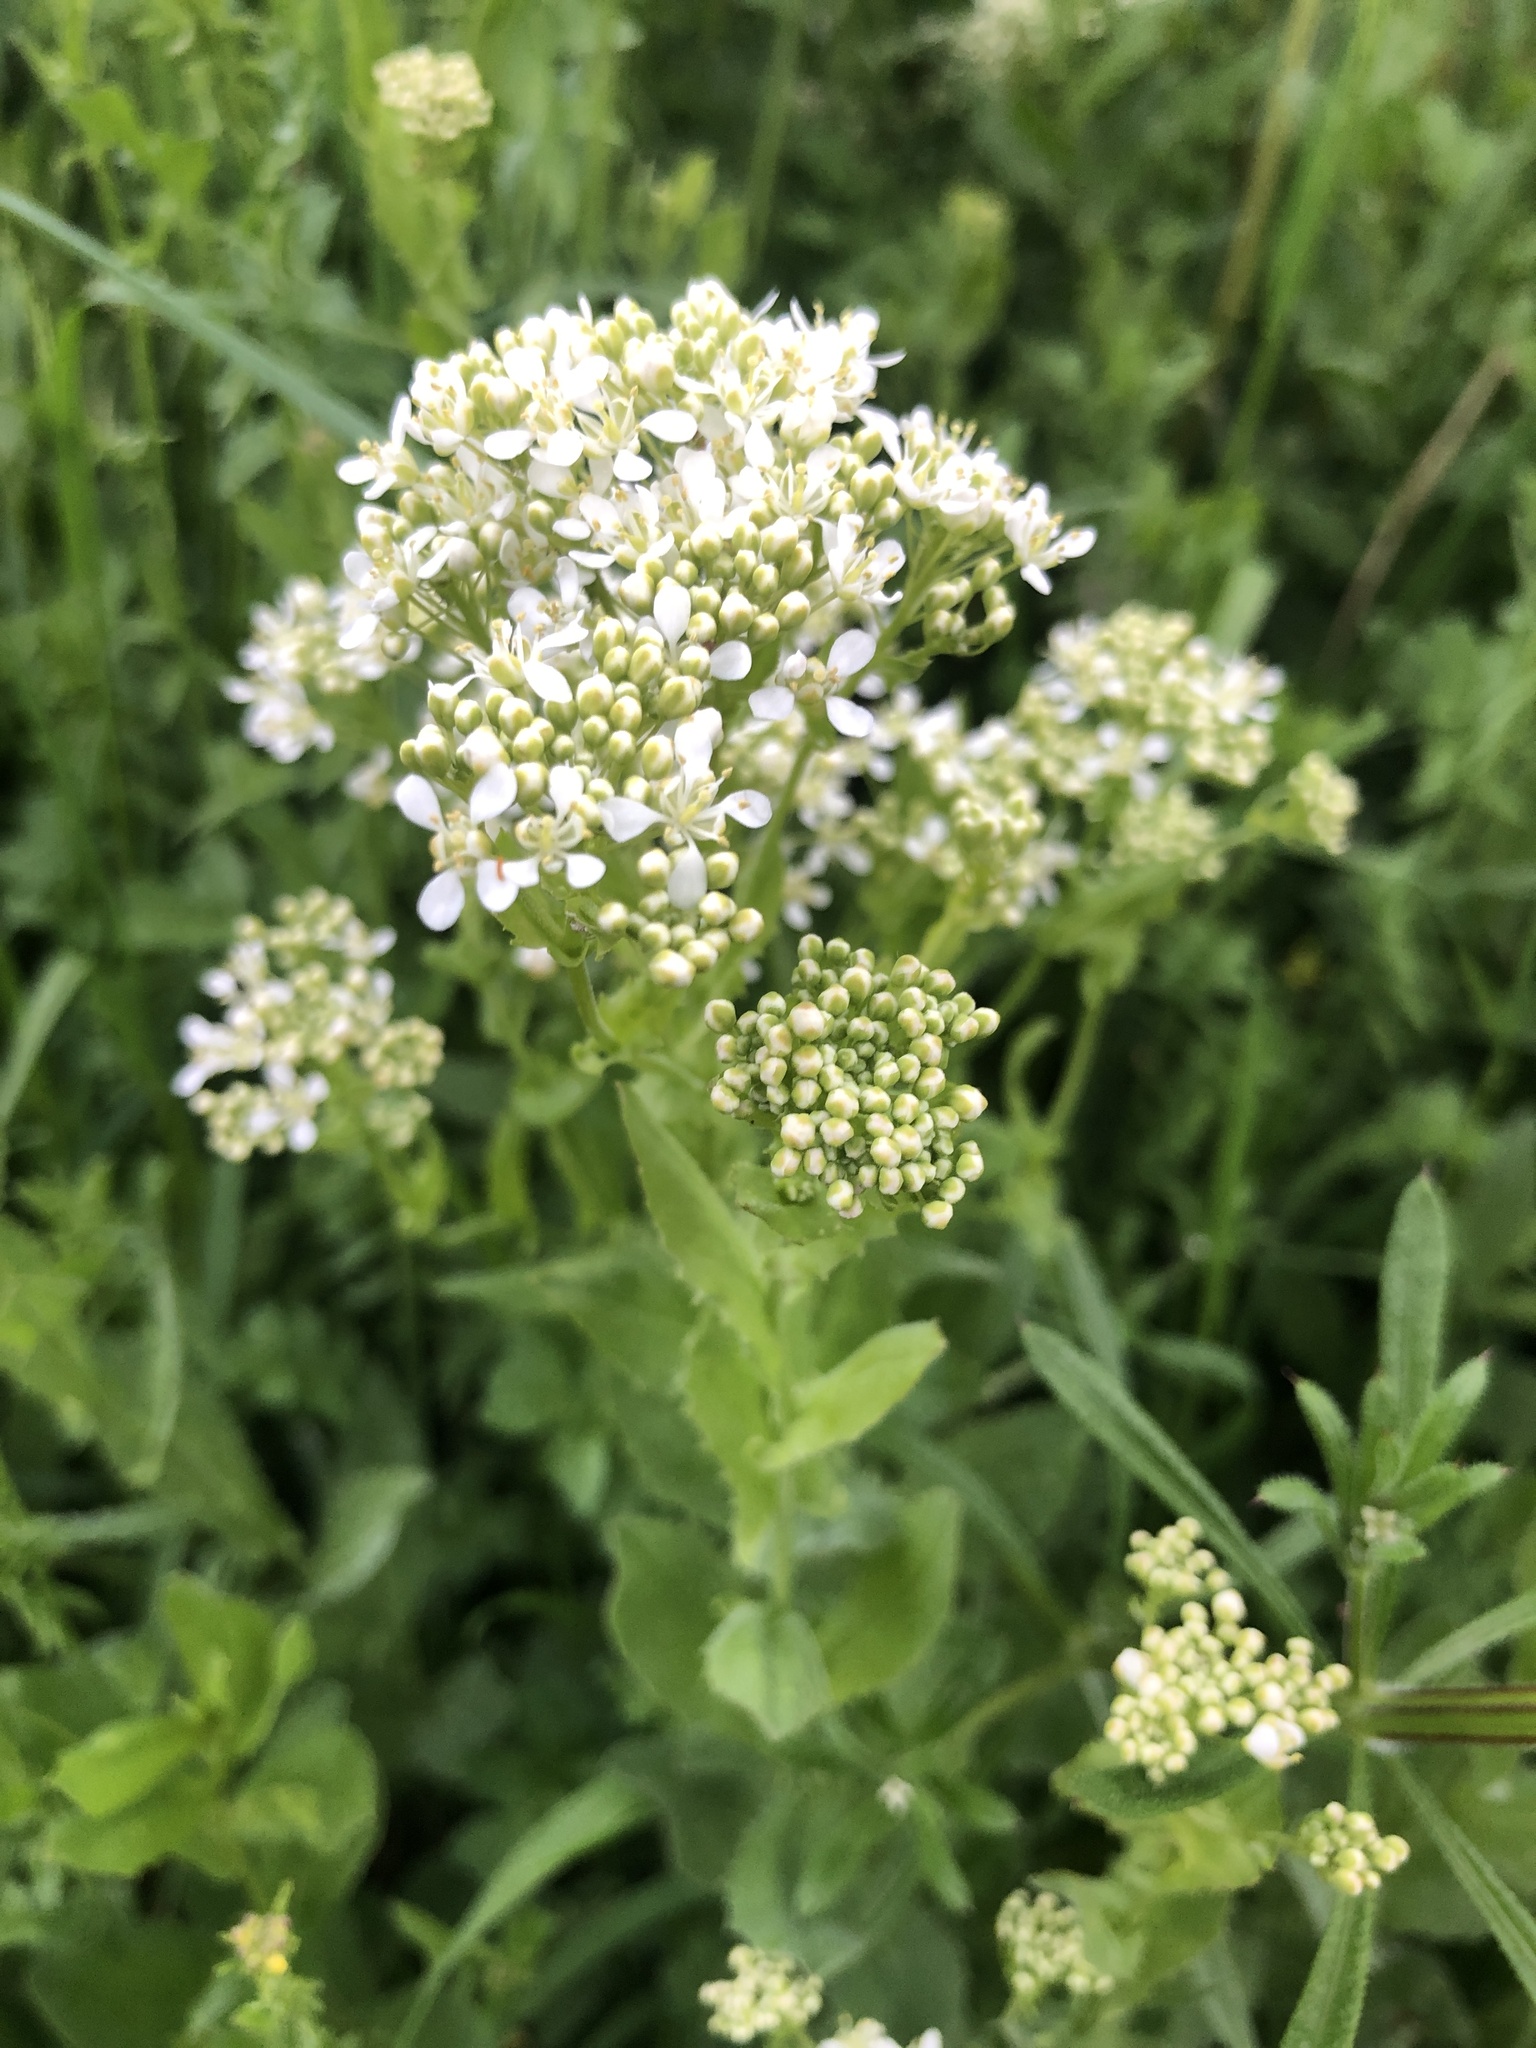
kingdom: Plantae
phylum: Tracheophyta
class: Magnoliopsida
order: Brassicales
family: Brassicaceae
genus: Lepidium
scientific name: Lepidium draba
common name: Hoary cress
